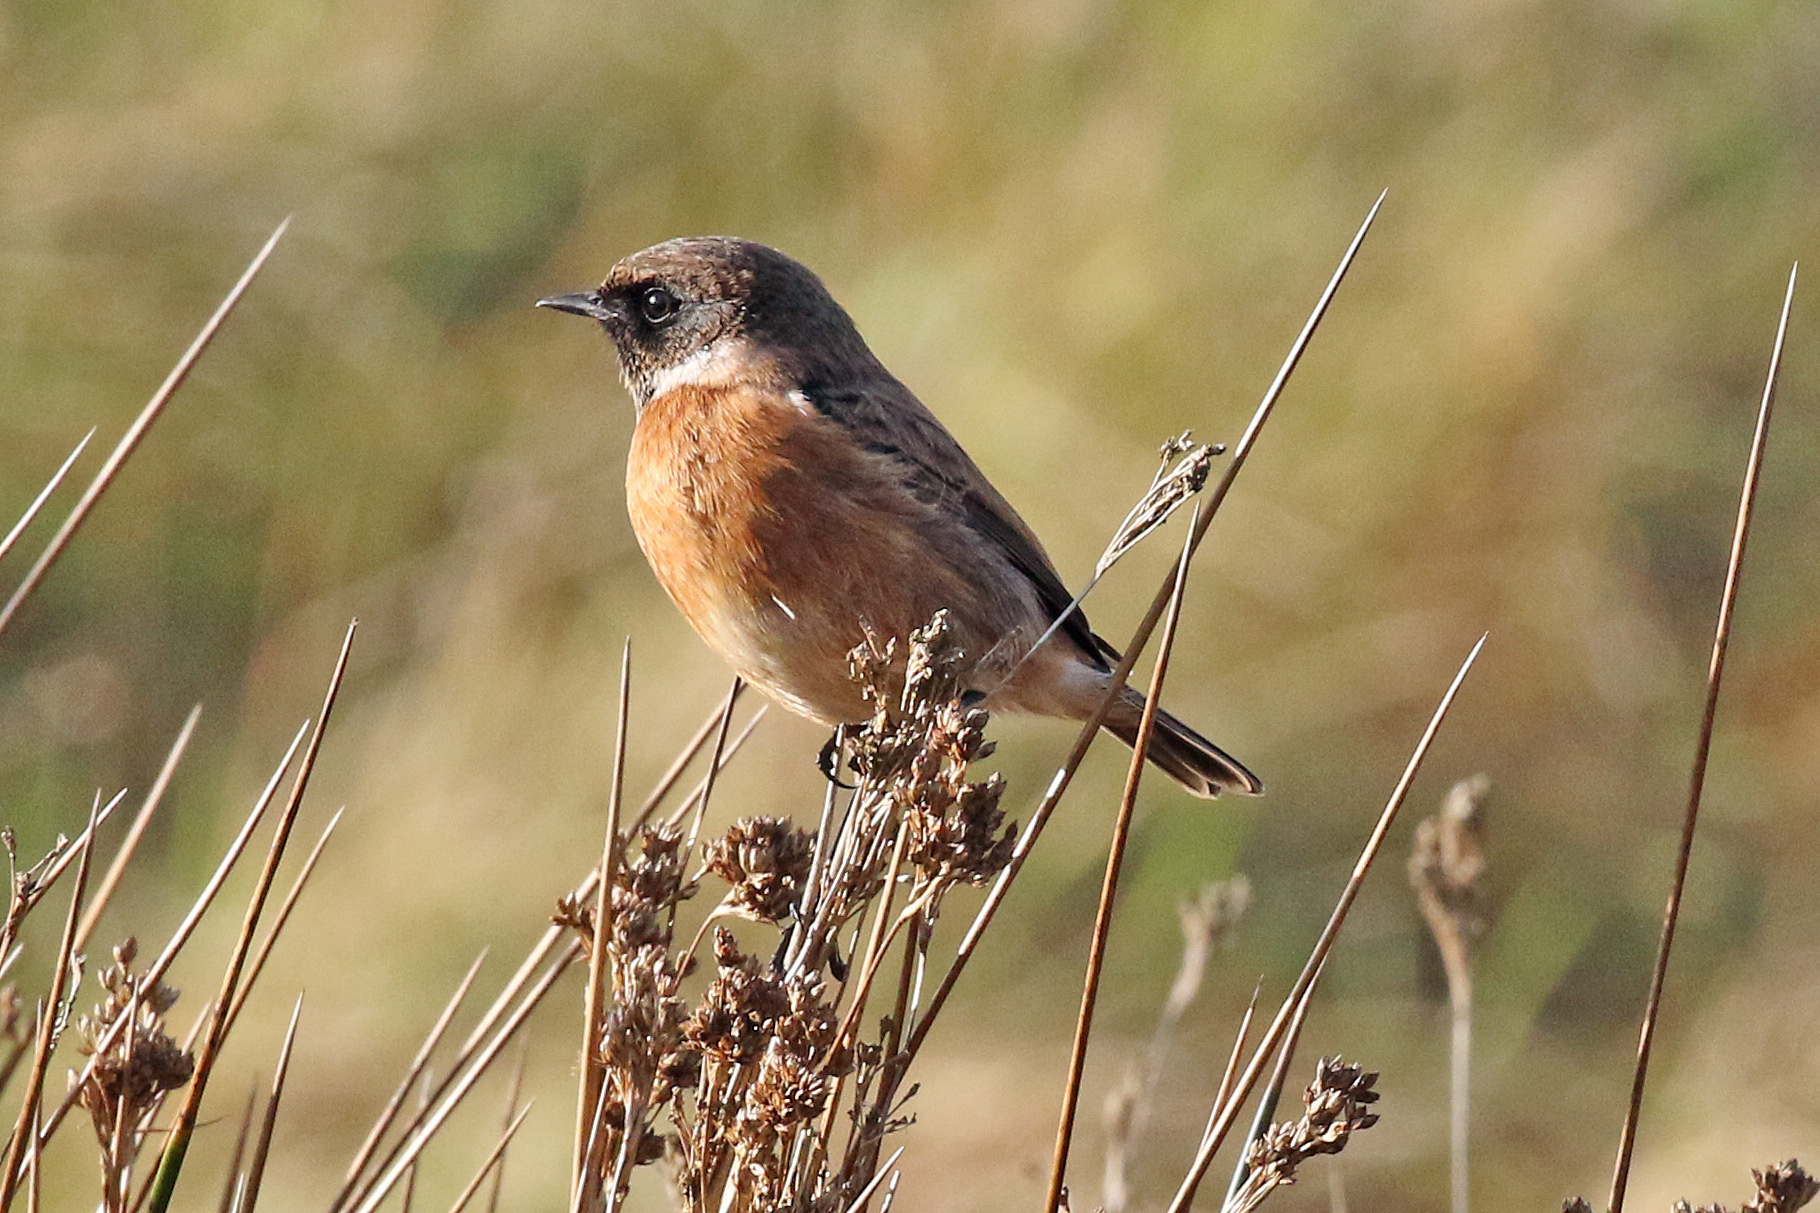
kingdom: Animalia
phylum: Chordata
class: Aves
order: Passeriformes
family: Muscicapidae
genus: Saxicola
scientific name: Saxicola rubicola
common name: European stonechat
